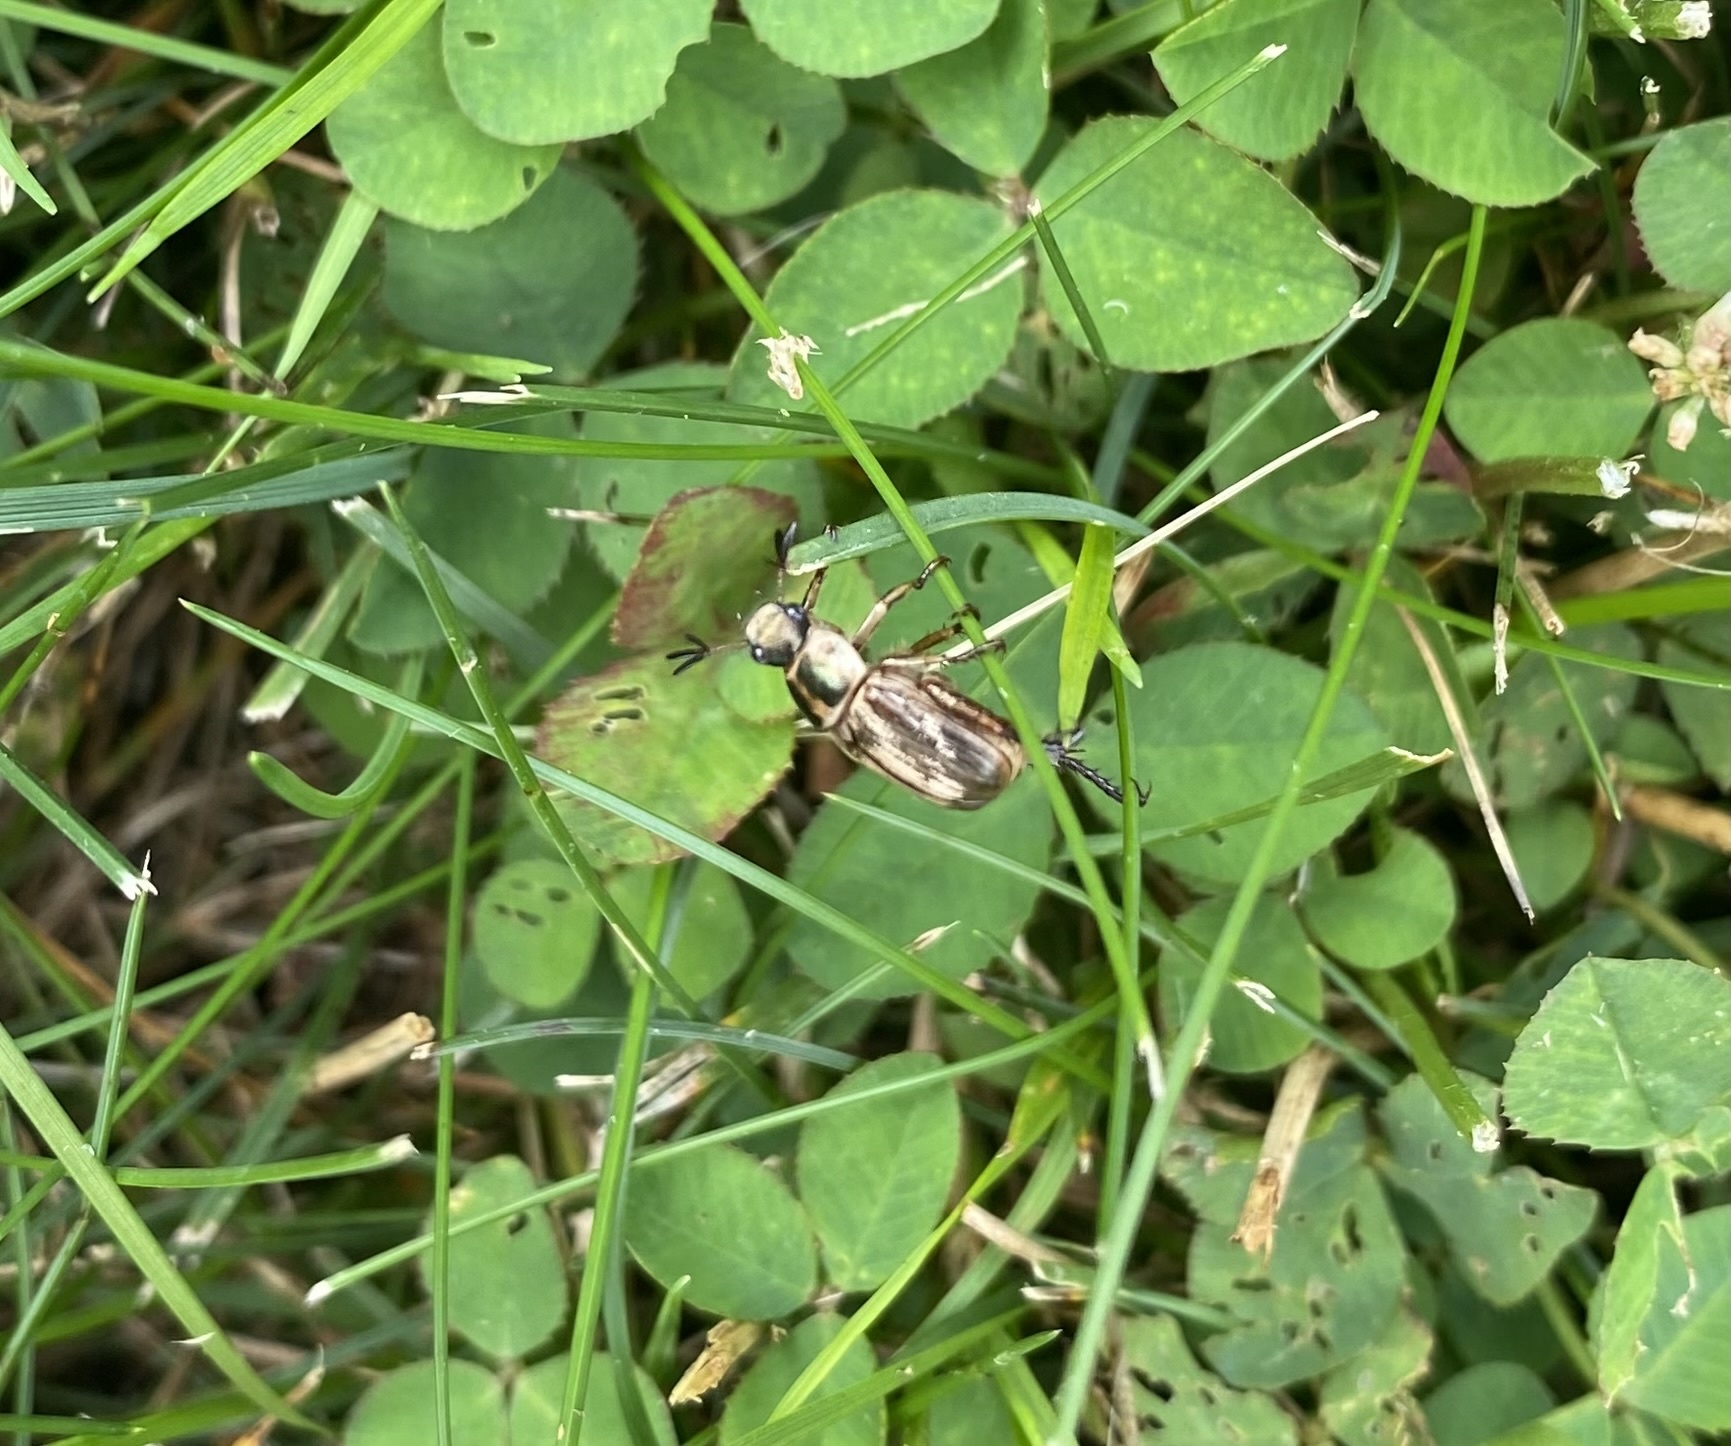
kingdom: Animalia
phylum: Arthropoda
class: Insecta
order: Coleoptera
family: Scarabaeidae
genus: Exomala
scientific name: Exomala orientalis
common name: Oriental beetle
